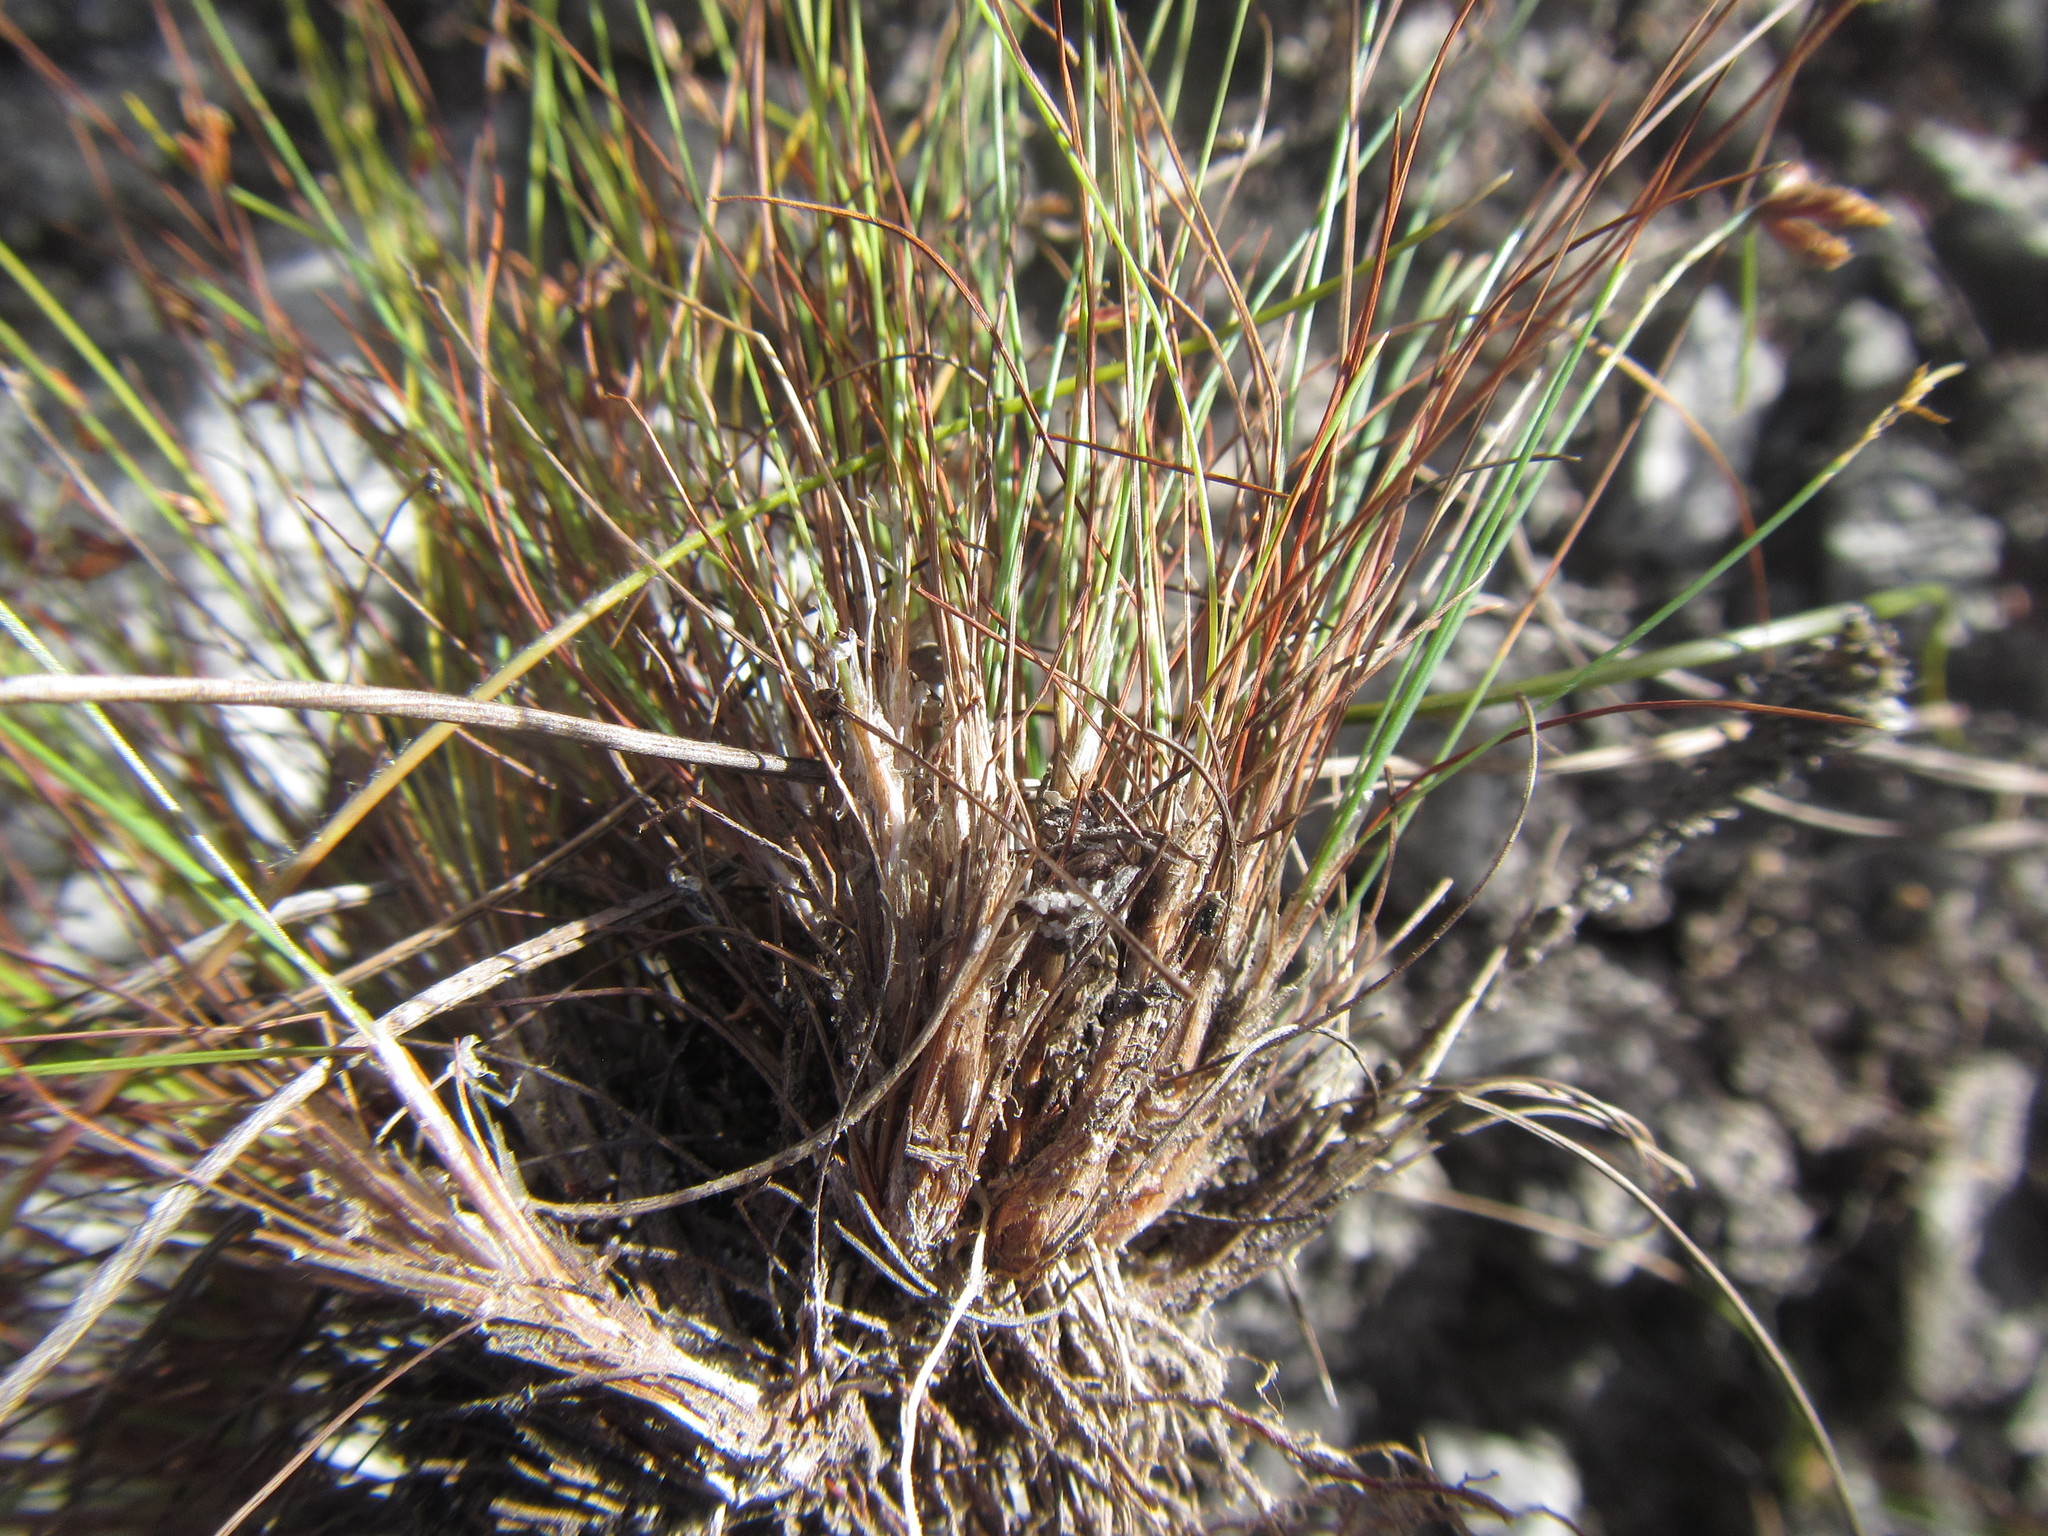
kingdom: Plantae
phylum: Tracheophyta
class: Liliopsida
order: Poales
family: Cyperaceae
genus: Ficinia
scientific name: Ficinia tristachya
